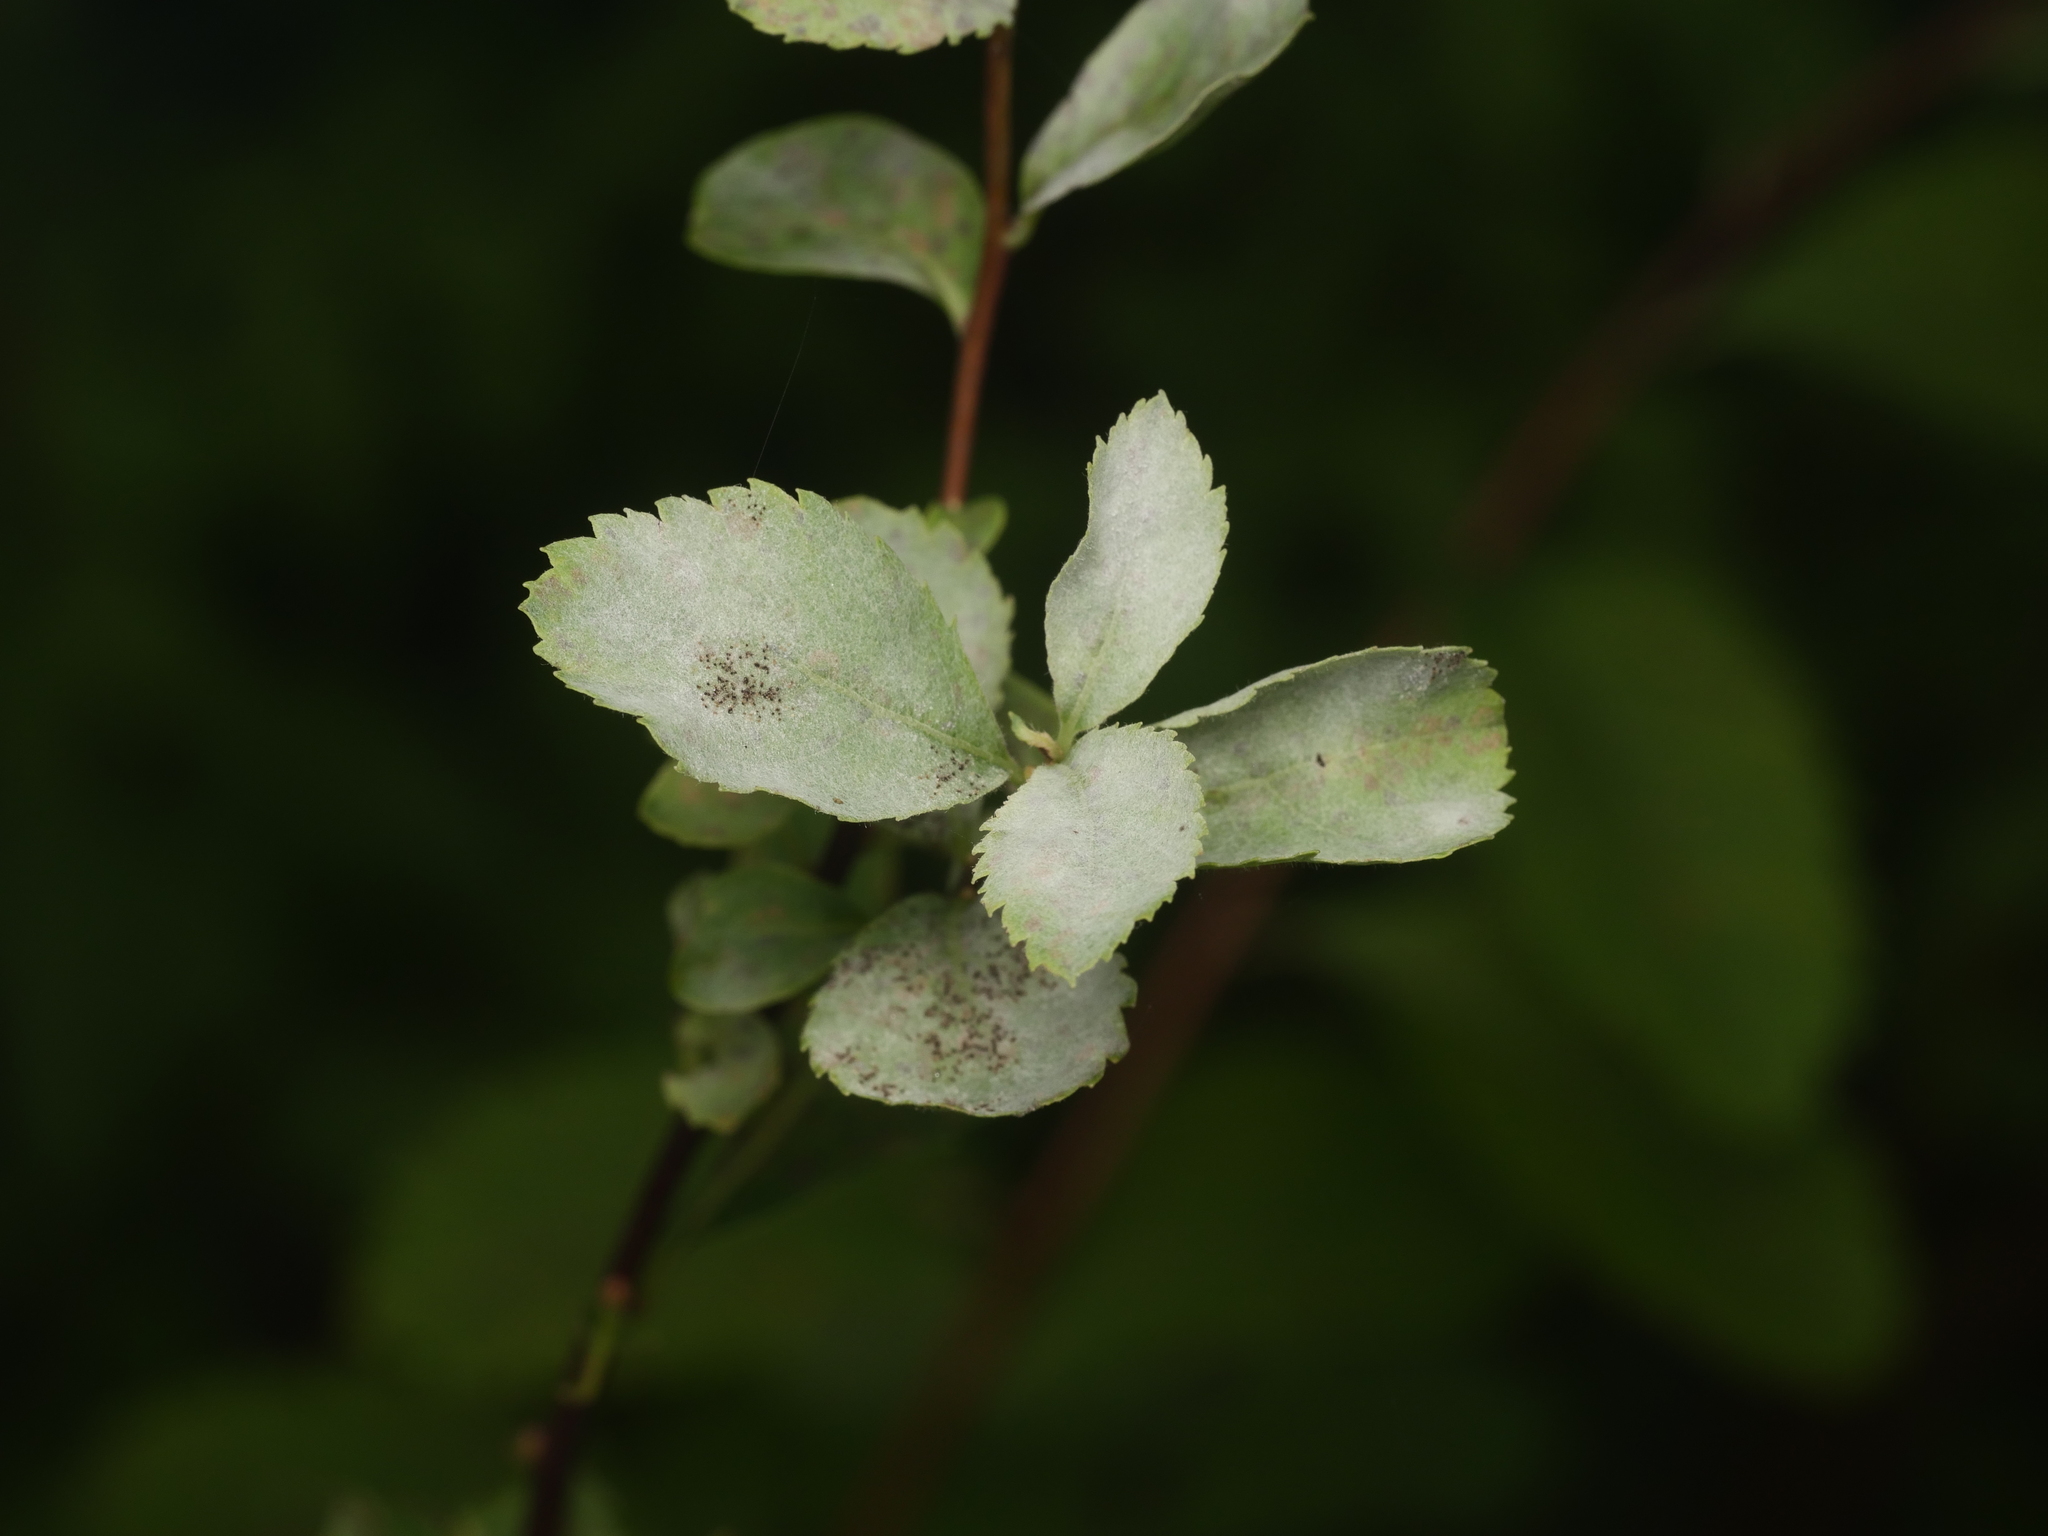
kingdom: Fungi
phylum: Ascomycota
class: Leotiomycetes
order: Helotiales
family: Erysiphaceae
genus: Podosphaera
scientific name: Podosphaera minor
